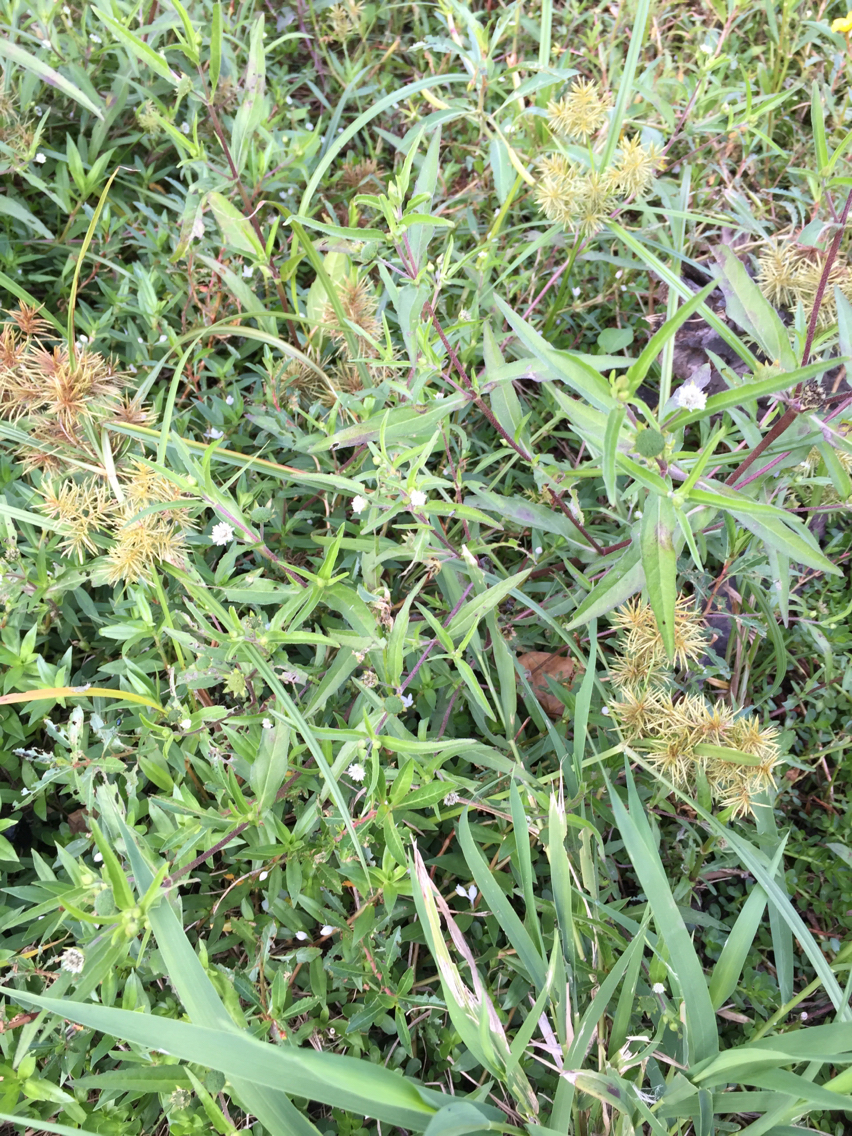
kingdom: Plantae
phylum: Tracheophyta
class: Magnoliopsida
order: Asterales
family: Asteraceae
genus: Eclipta
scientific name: Eclipta prostrata
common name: False daisy
